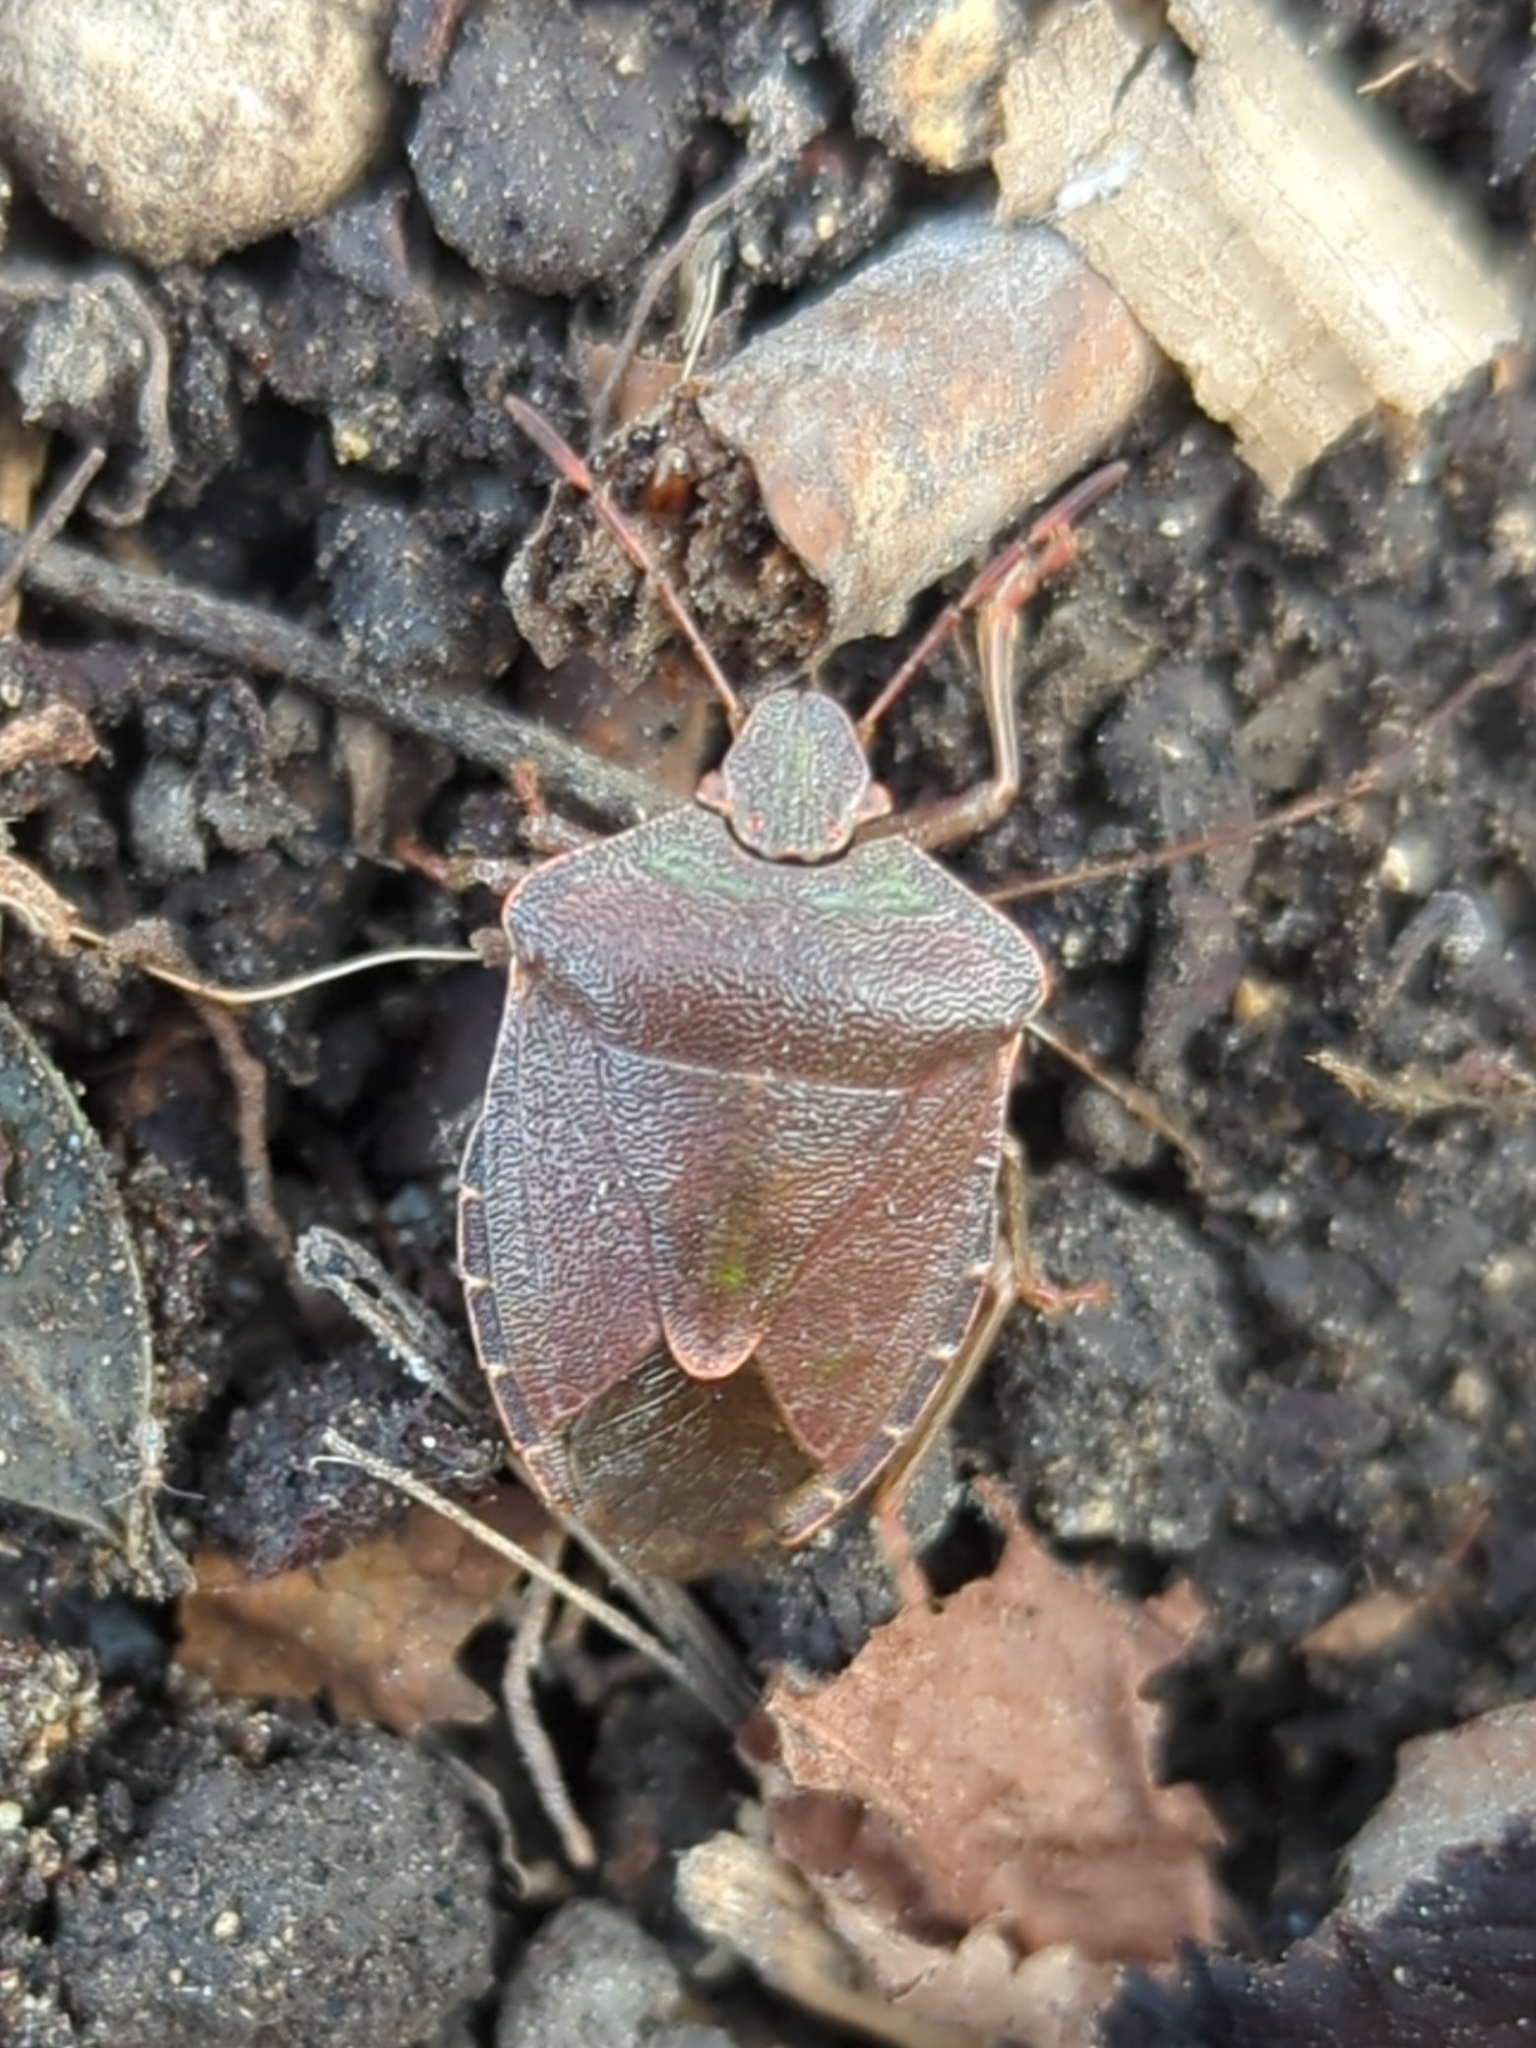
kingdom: Animalia
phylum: Arthropoda
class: Insecta
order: Hemiptera
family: Pentatomidae
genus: Palomena
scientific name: Palomena prasina
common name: Green shieldbug
